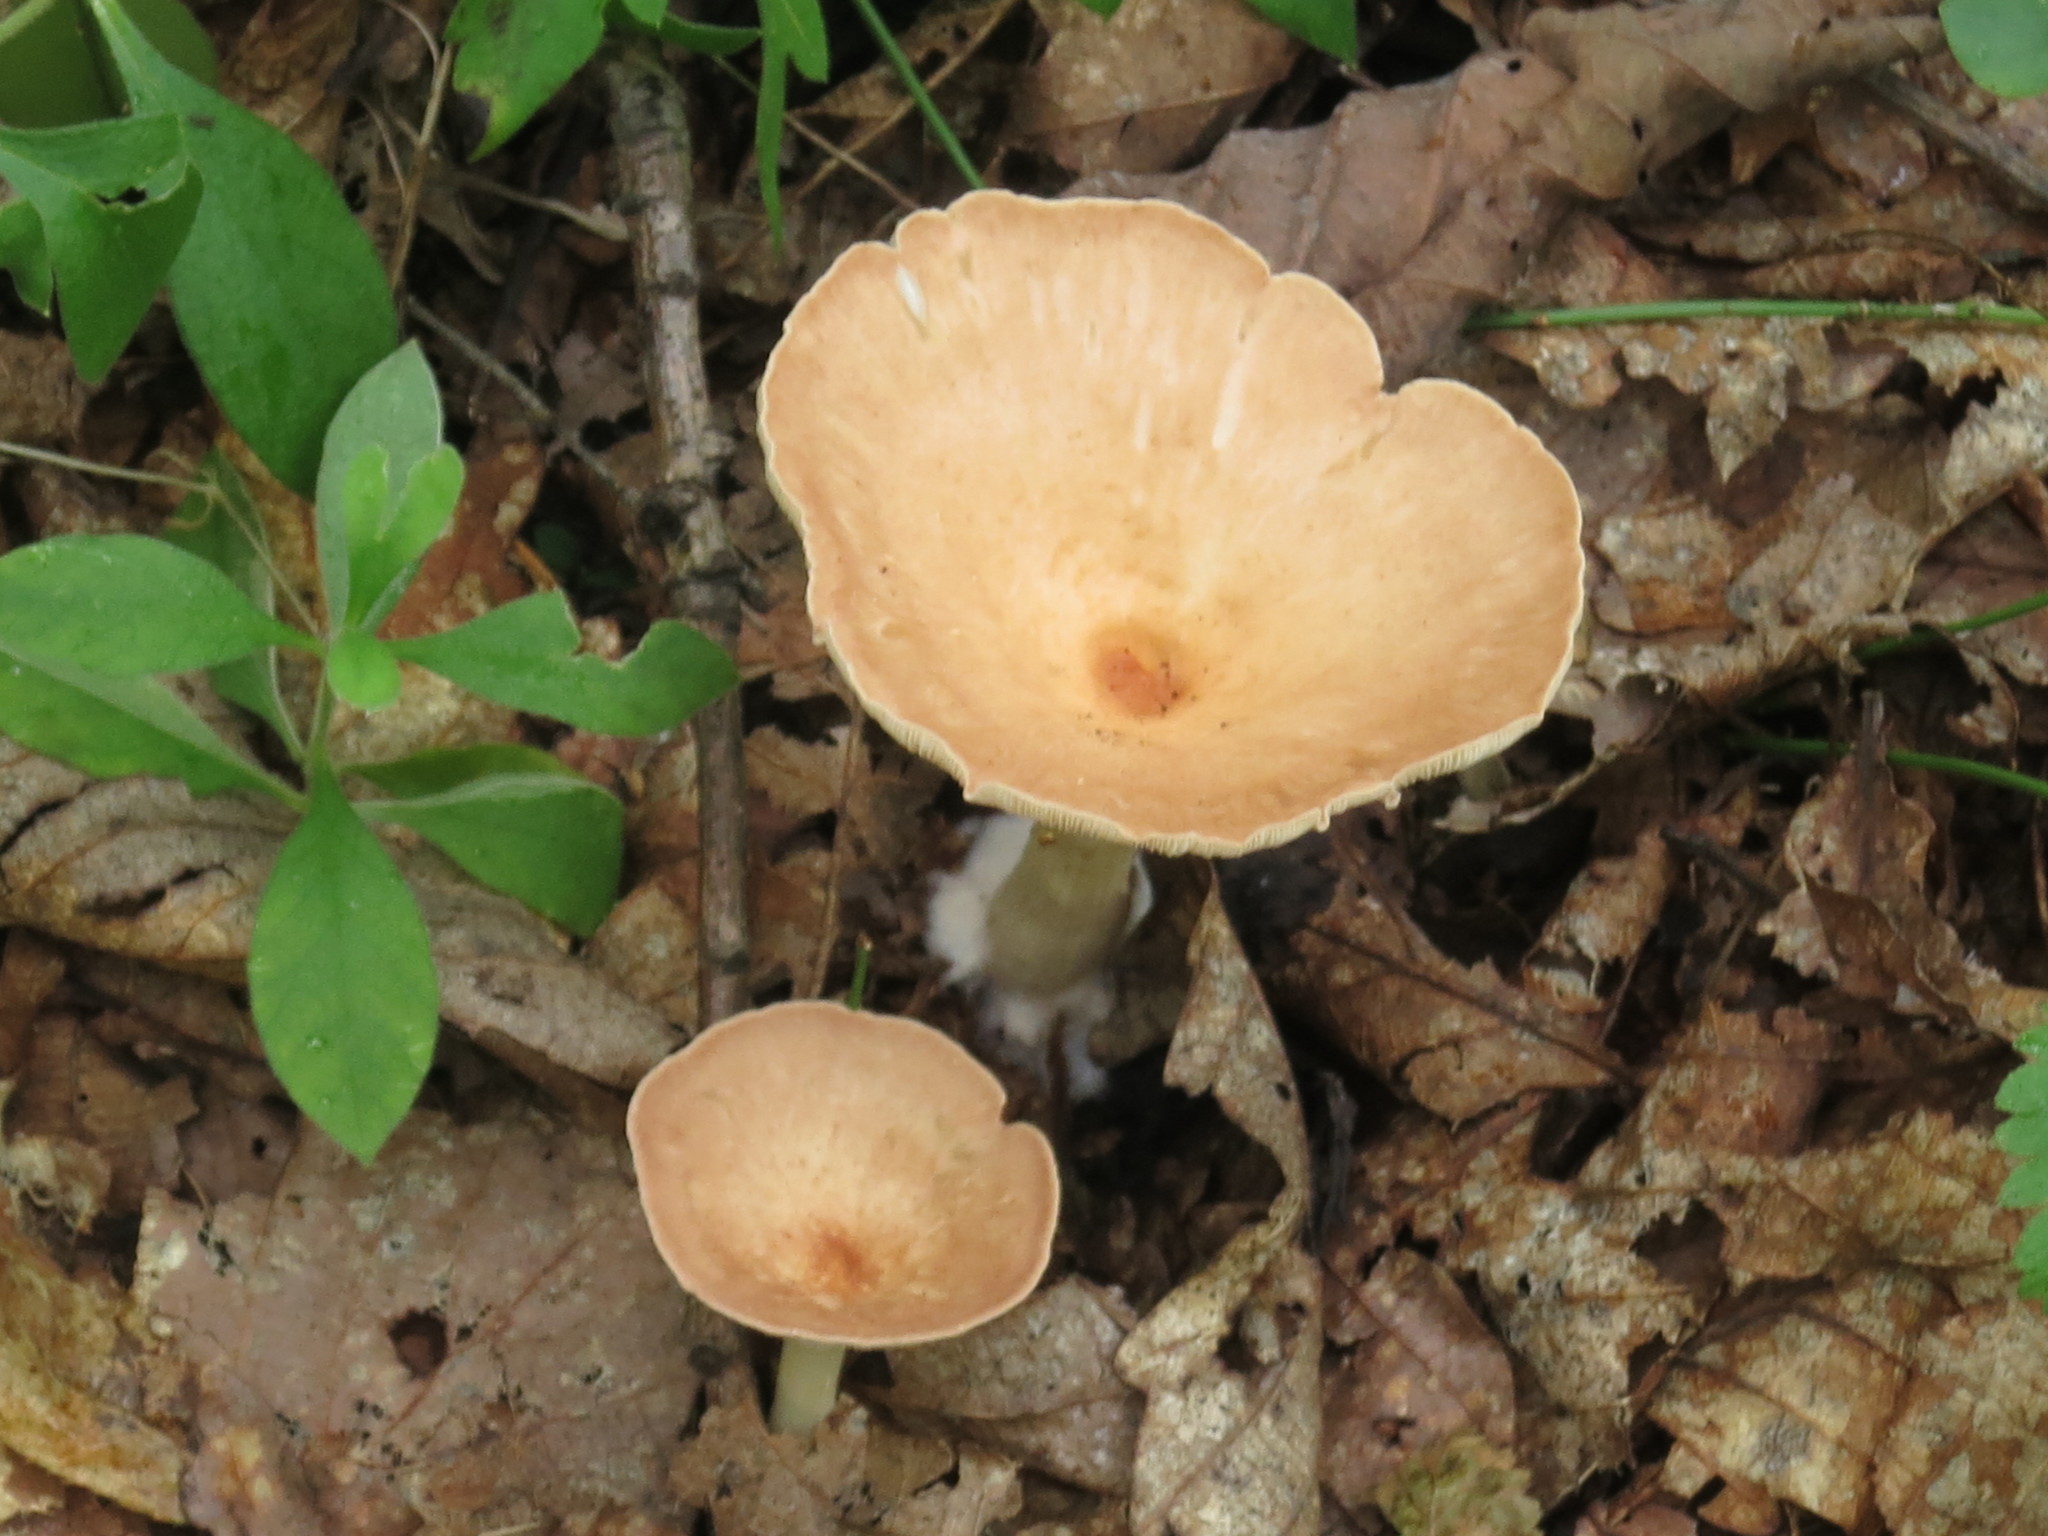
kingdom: Fungi
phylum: Basidiomycota
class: Agaricomycetes
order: Agaricales
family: Tricholomataceae
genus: Infundibulicybe
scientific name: Infundibulicybe gibba
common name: Common funnel
